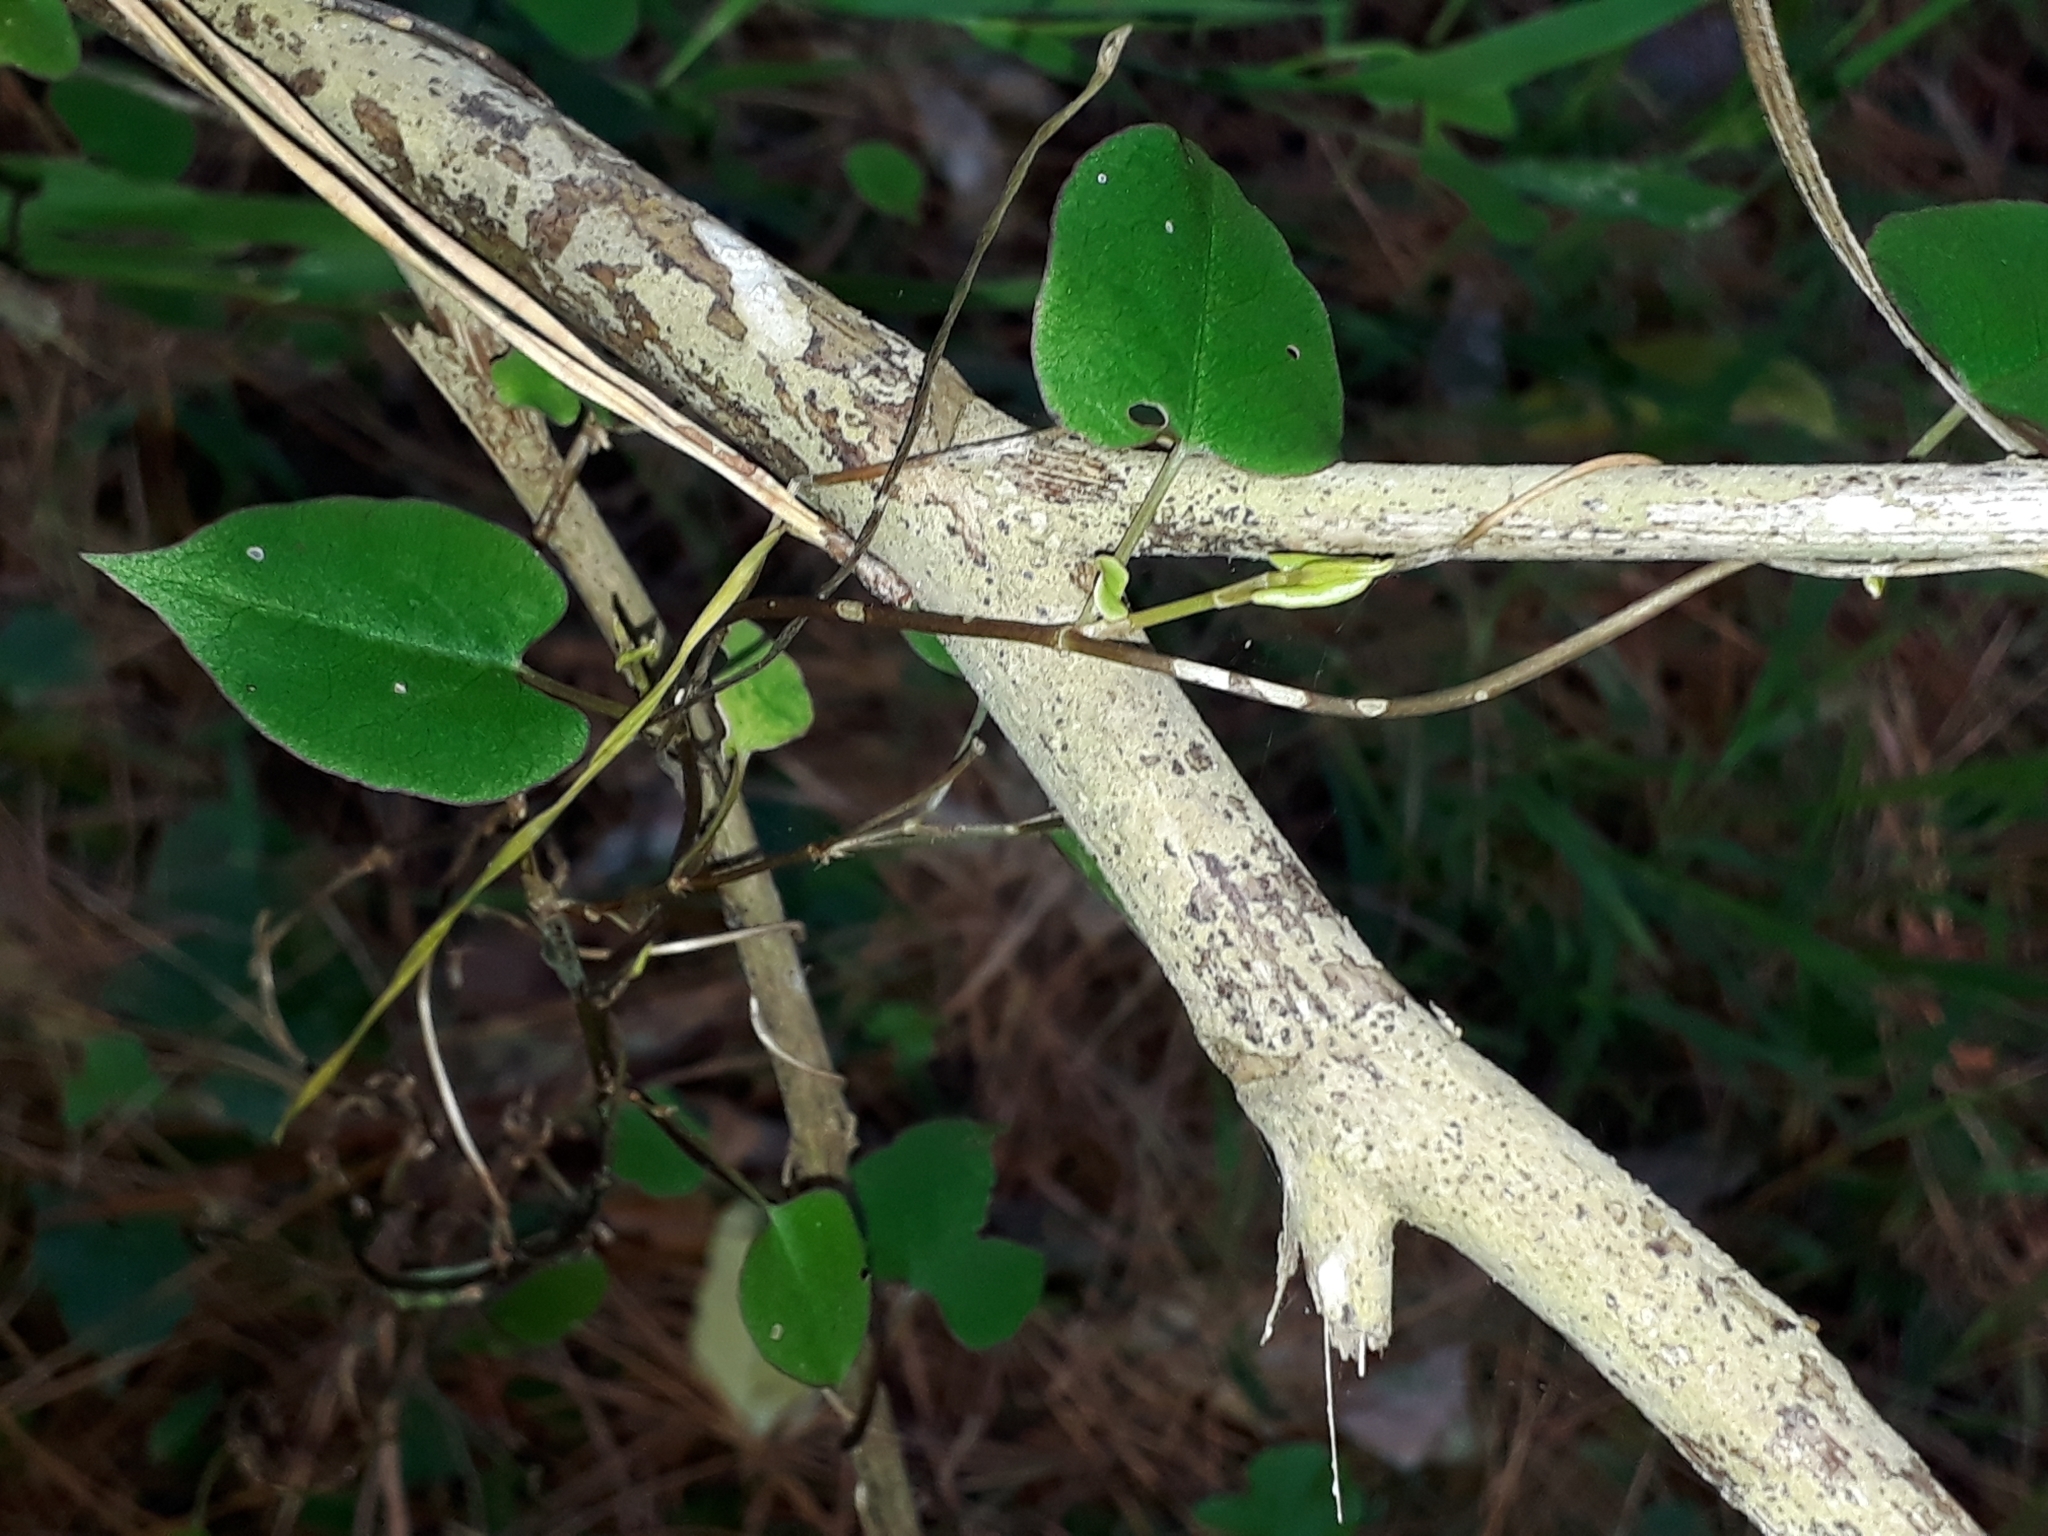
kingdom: Plantae
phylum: Tracheophyta
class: Magnoliopsida
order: Caryophyllales
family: Polygonaceae
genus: Muehlenbeckia
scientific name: Muehlenbeckia australis
